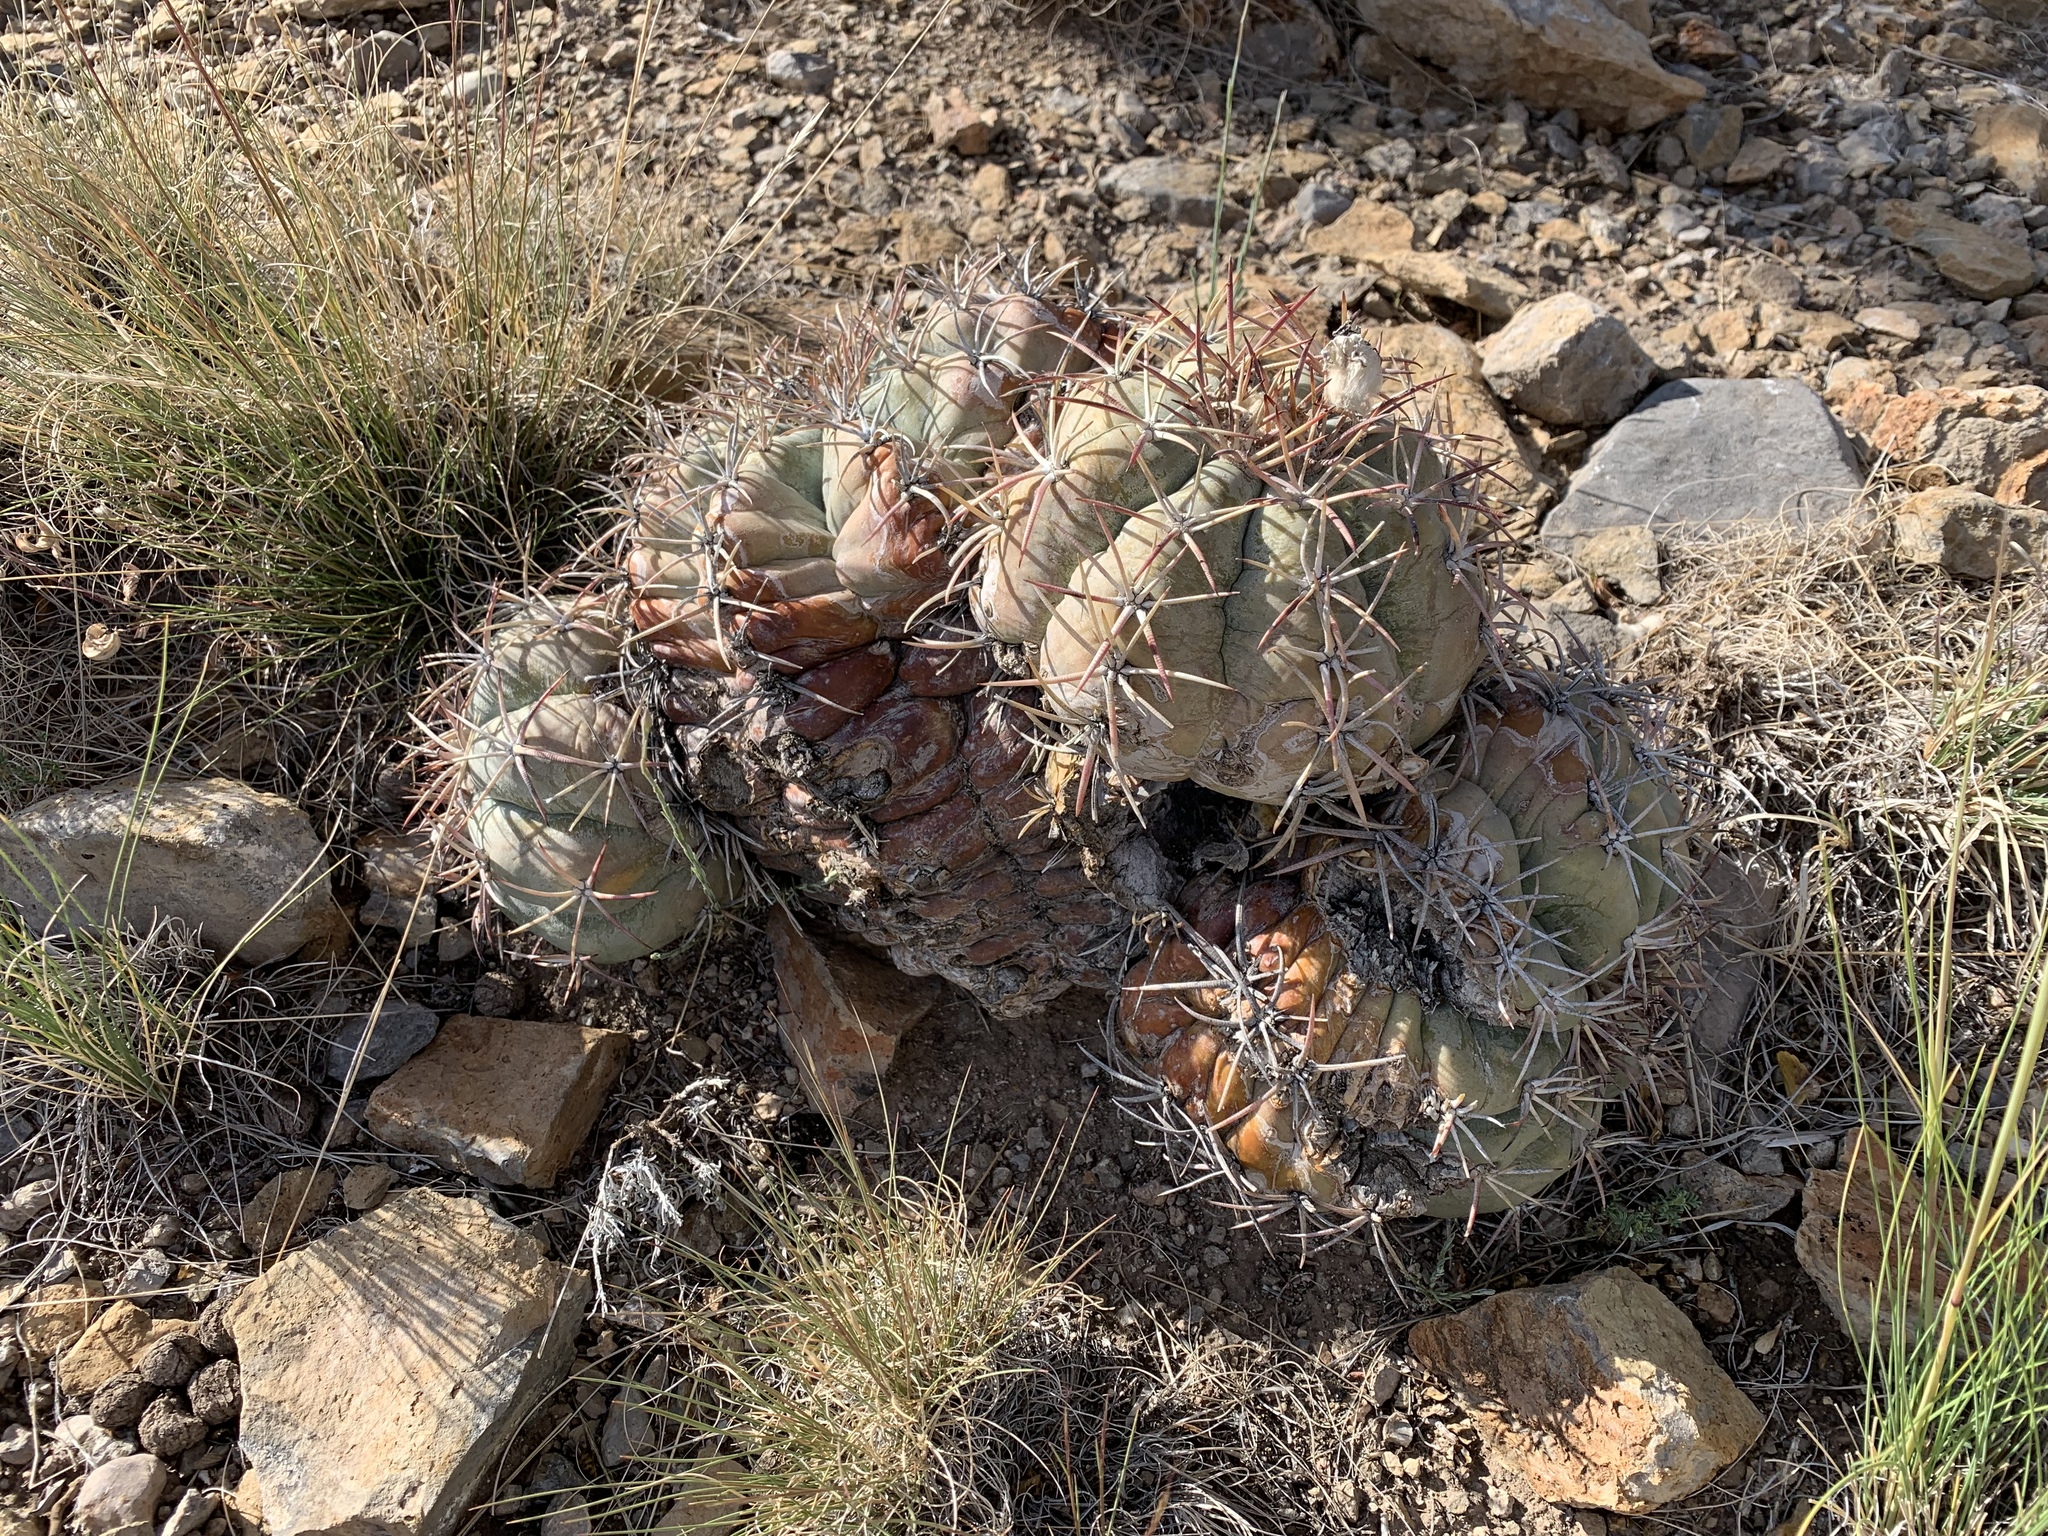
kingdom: Plantae
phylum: Tracheophyta
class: Magnoliopsida
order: Caryophyllales
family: Cactaceae
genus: Echinocactus
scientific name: Echinocactus horizonthalonius
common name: Devilshead
